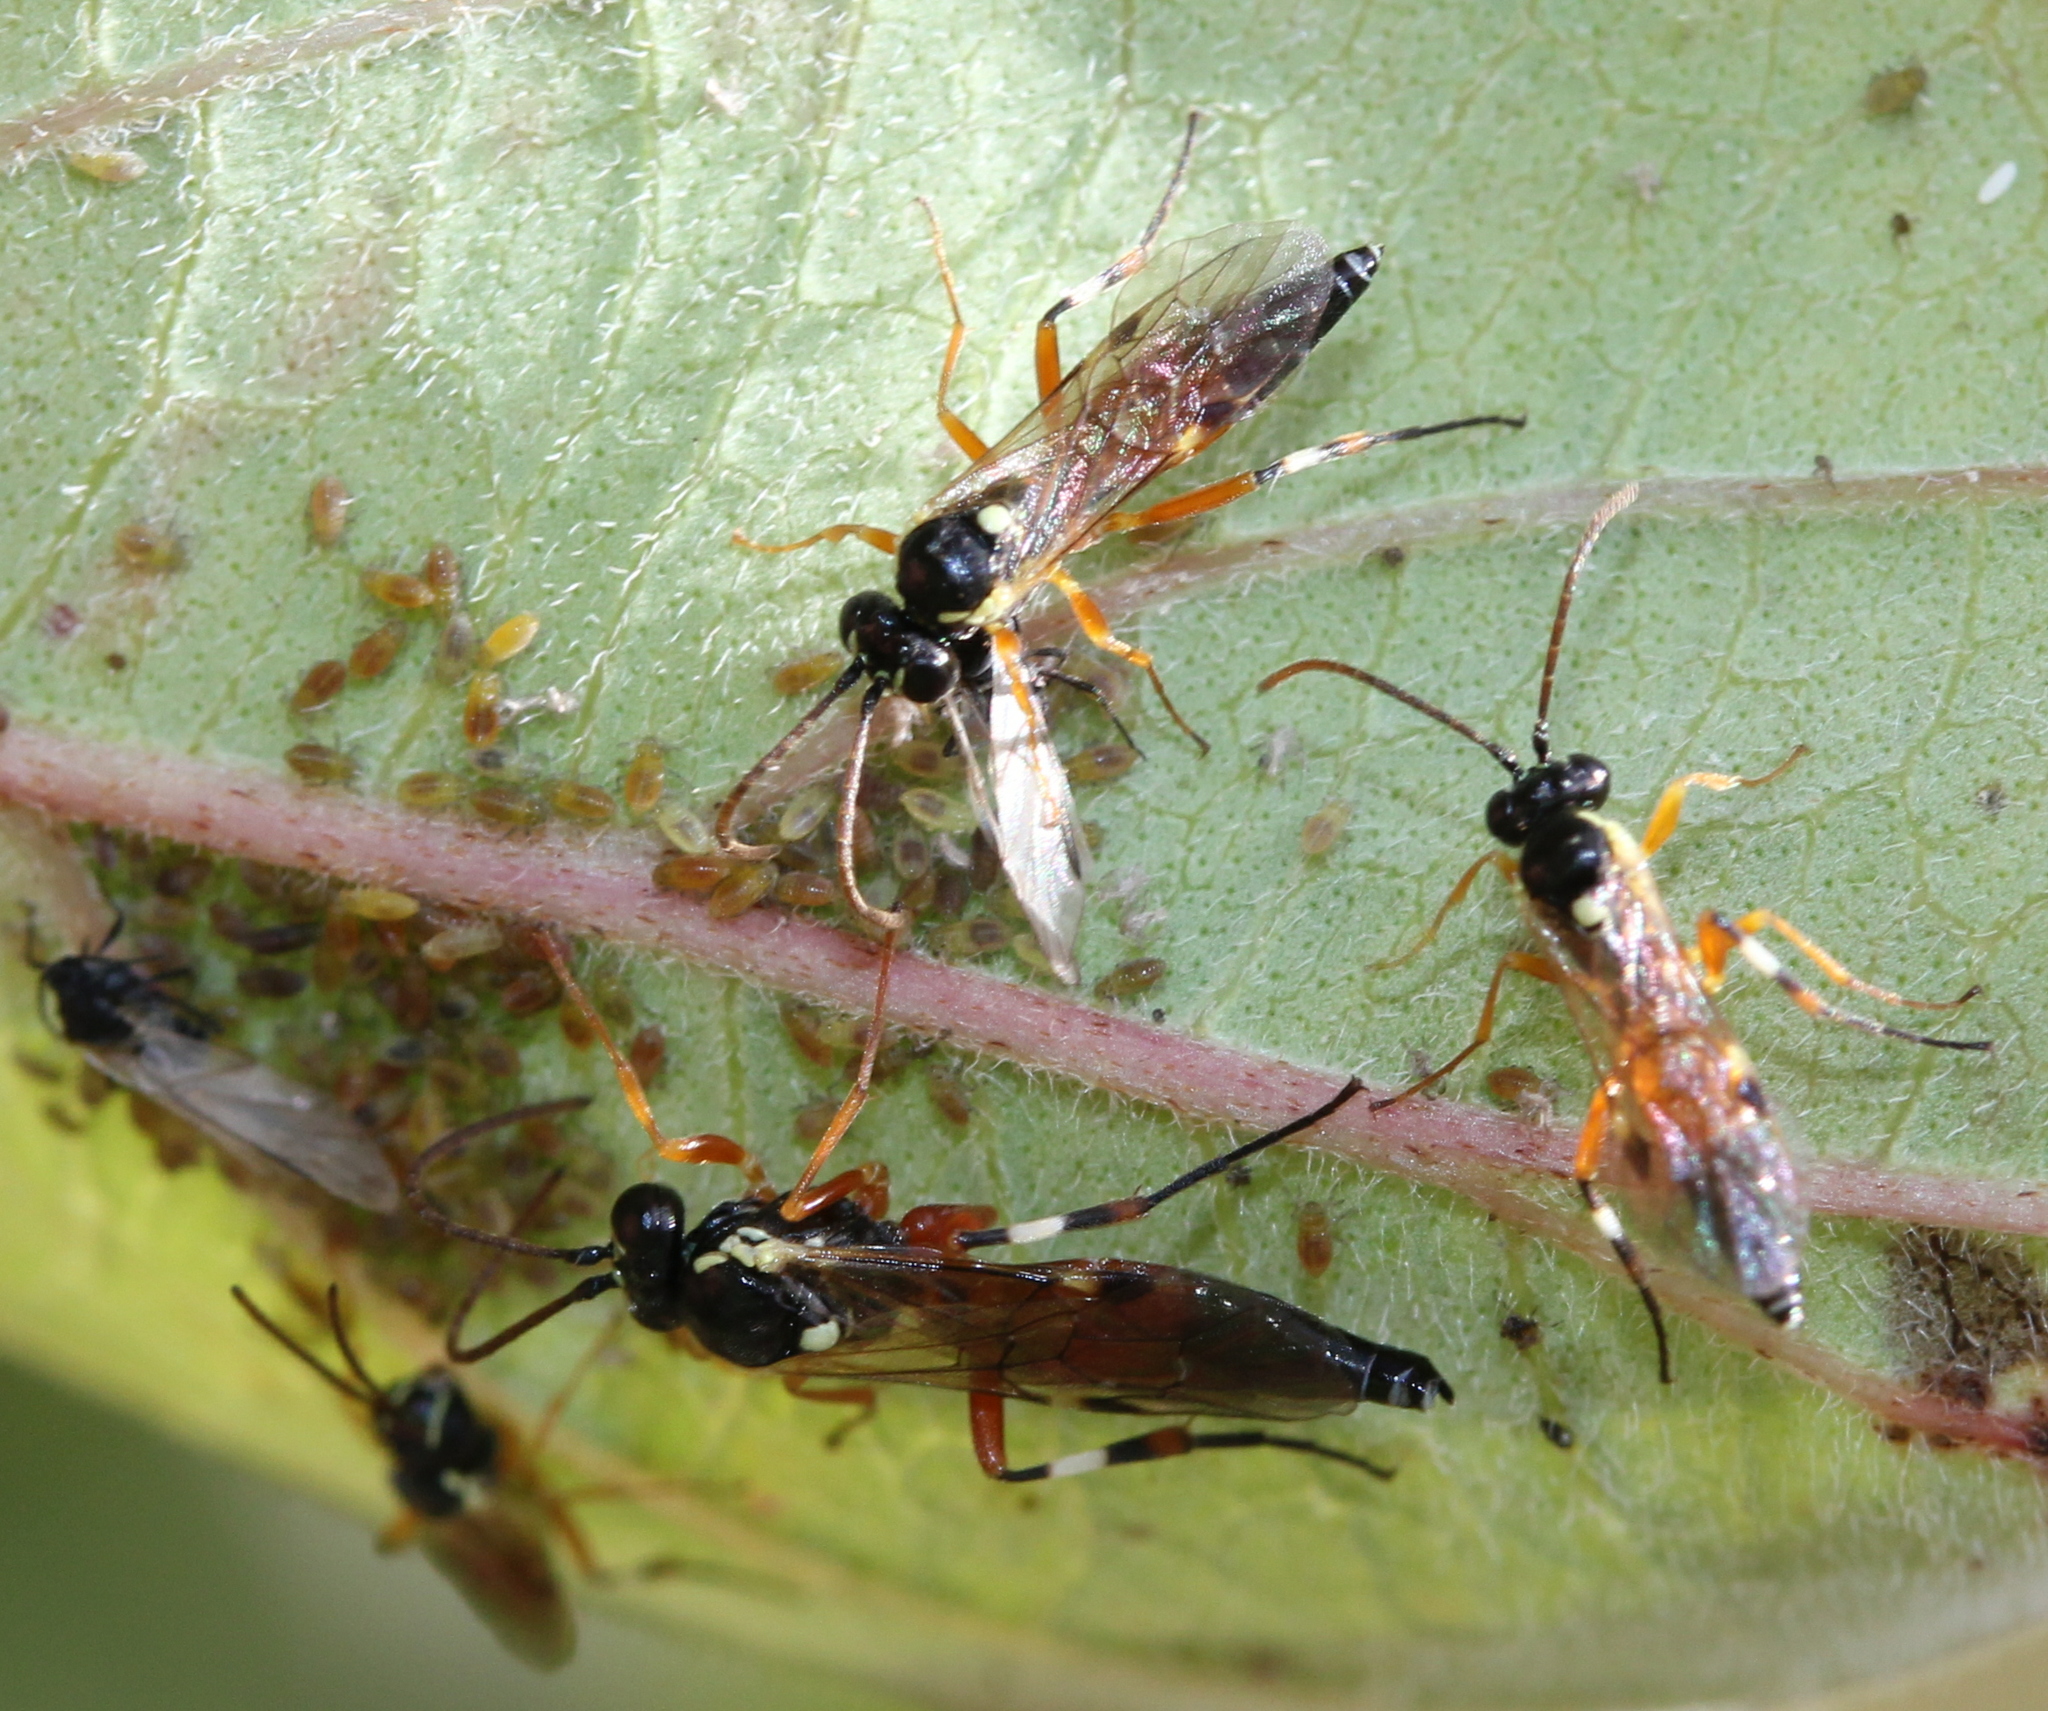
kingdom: Animalia
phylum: Arthropoda
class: Insecta
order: Hymenoptera
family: Ichneumonidae
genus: Diplazon
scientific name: Diplazon laetatorius
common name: Parasitoid wasp
